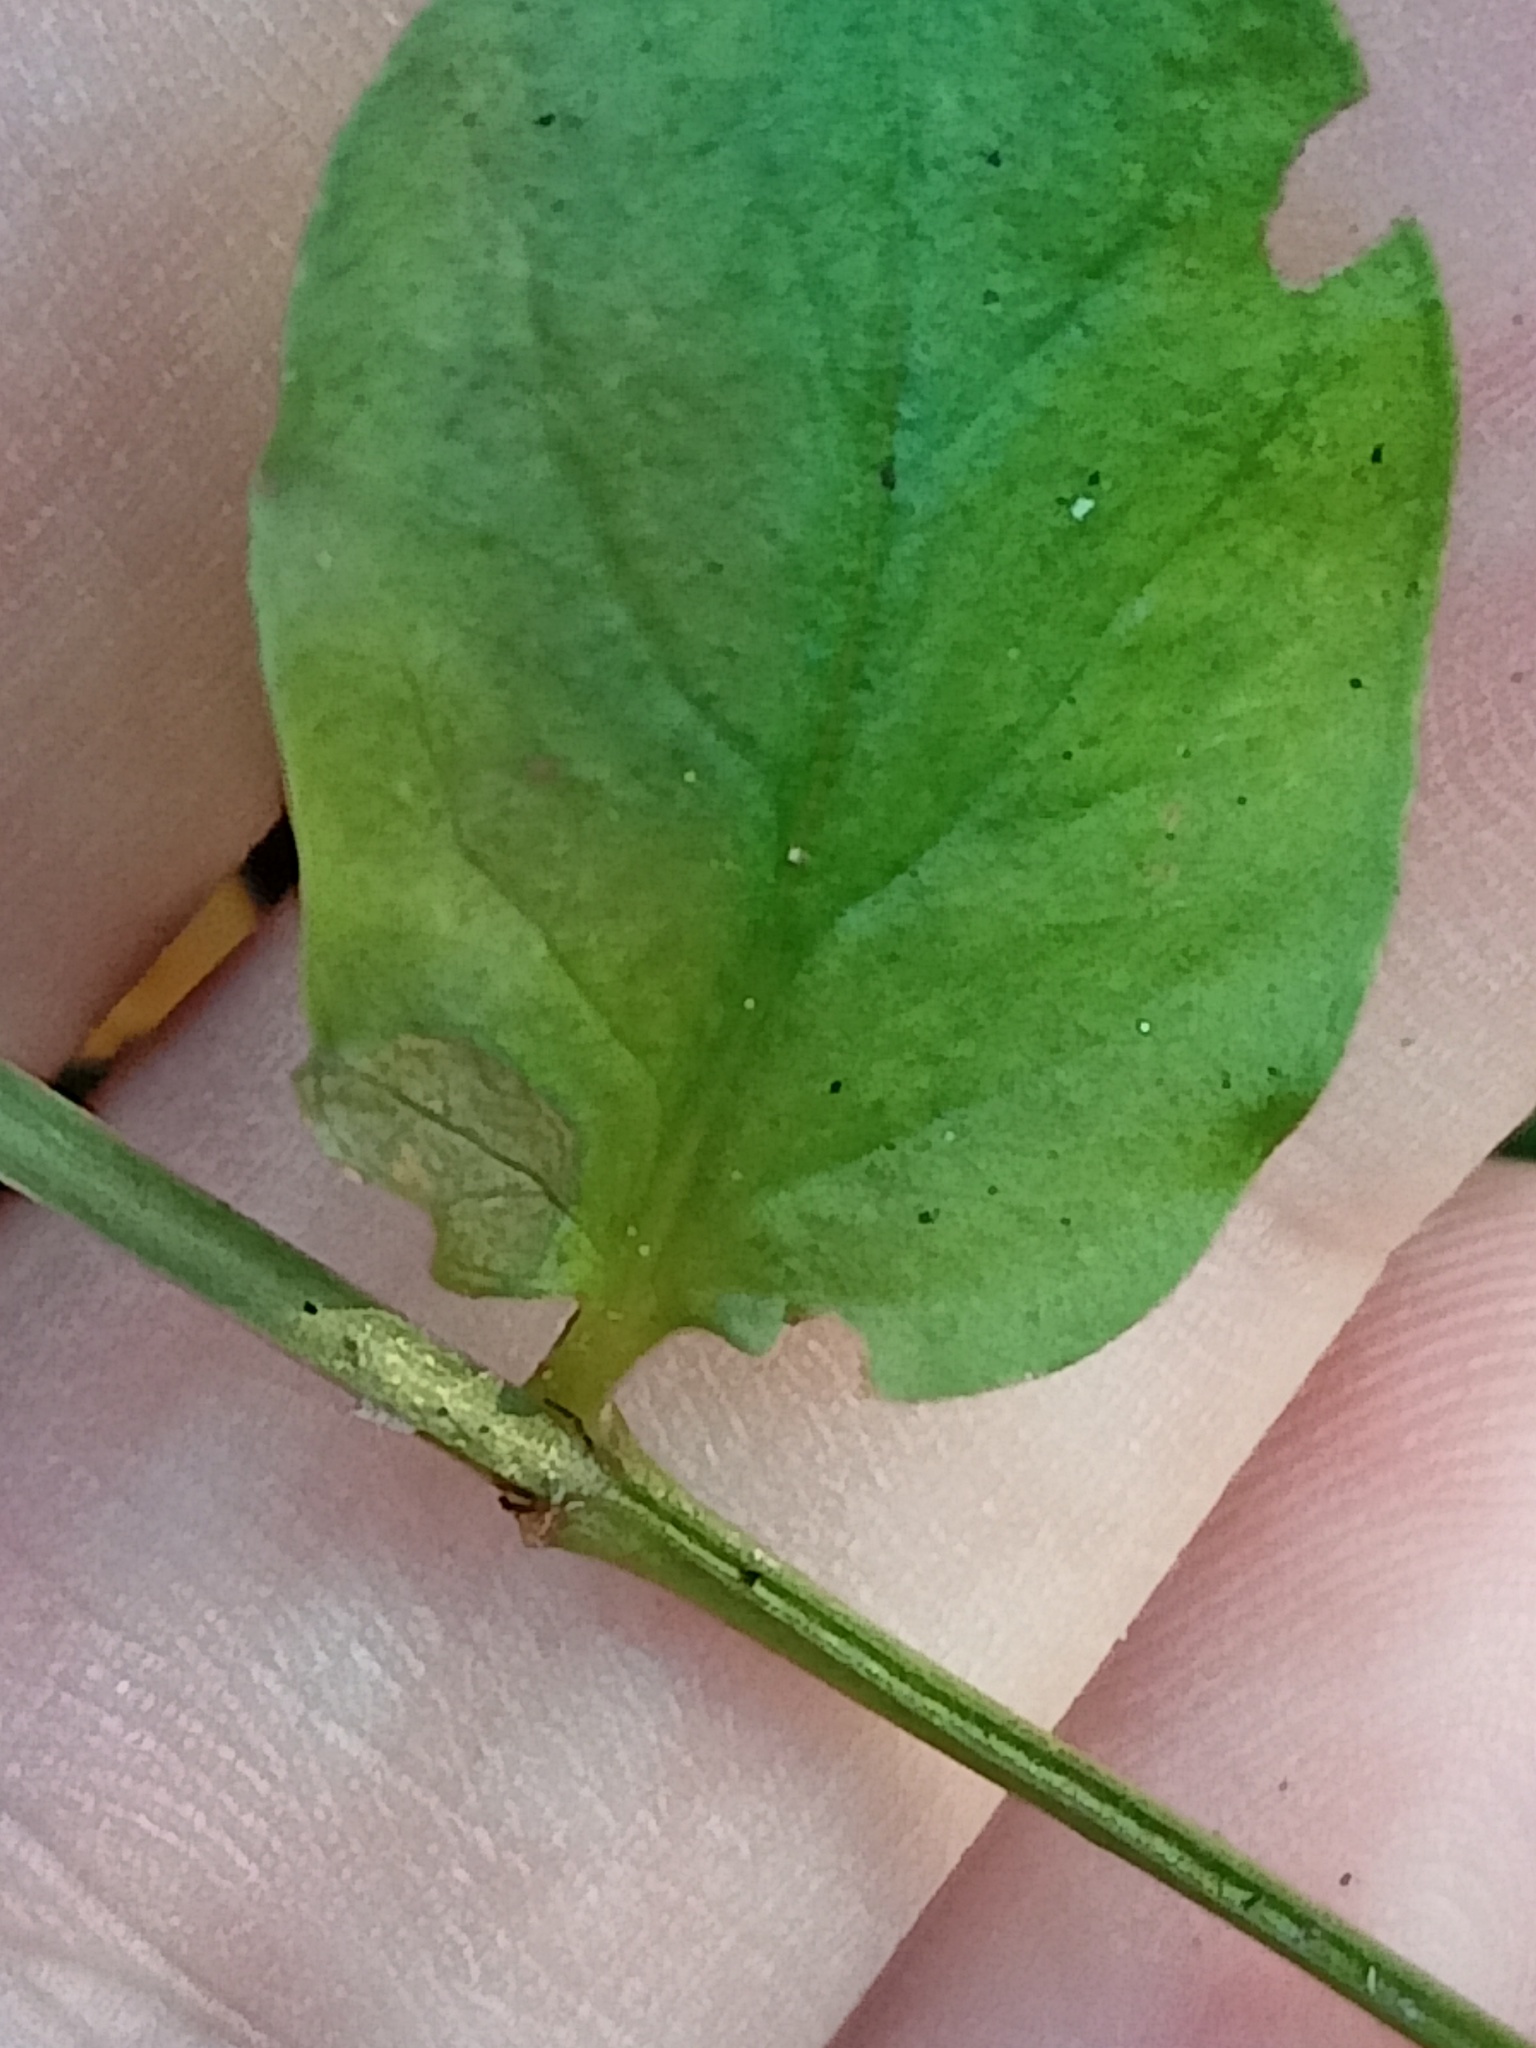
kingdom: Plantae
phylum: Tracheophyta
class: Magnoliopsida
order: Ericales
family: Primulaceae
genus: Lysimachia
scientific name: Lysimachia nummularia
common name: Moneywort
